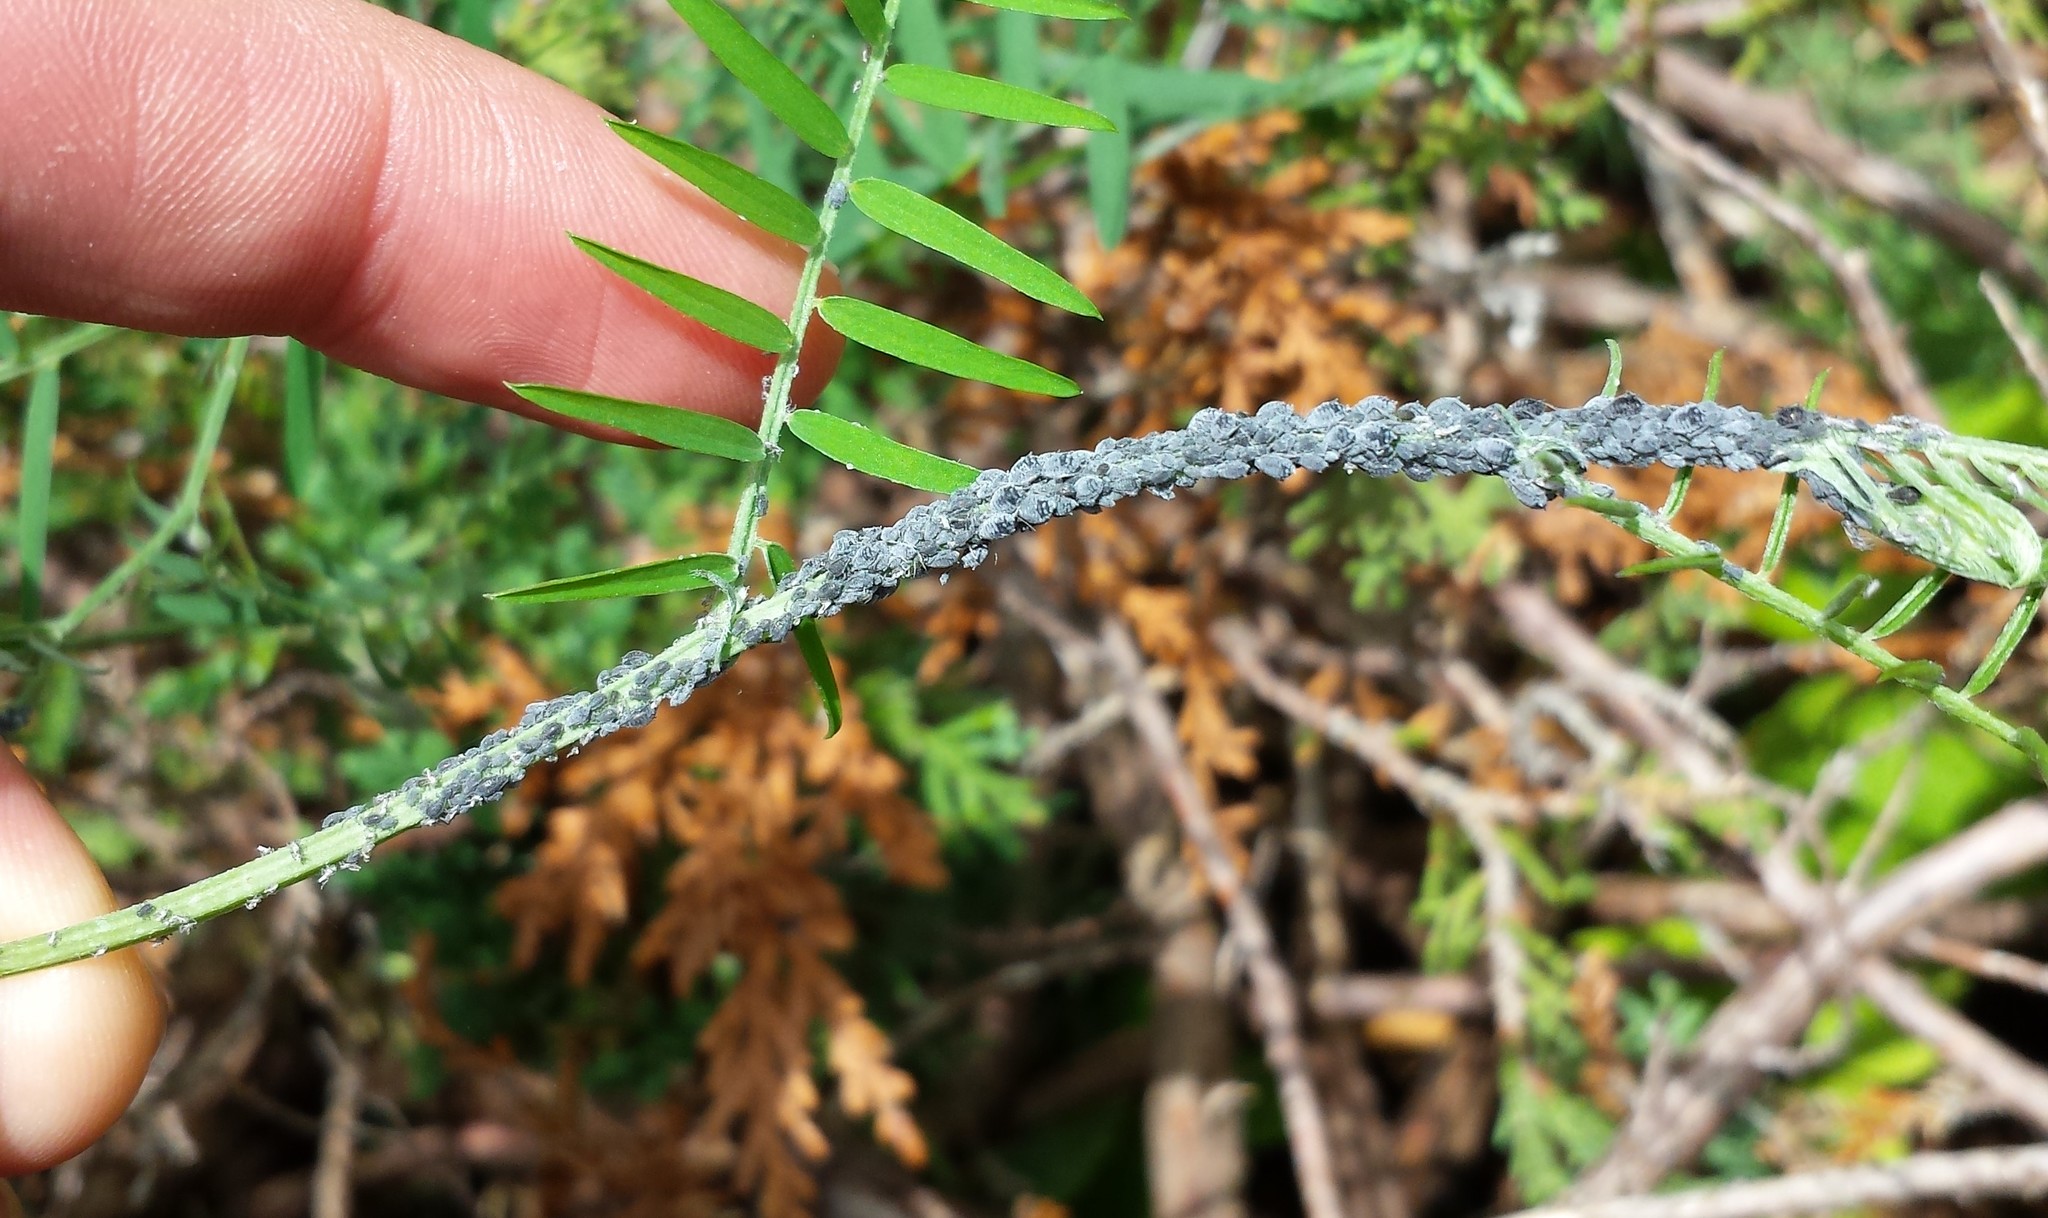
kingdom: Animalia
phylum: Arthropoda
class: Insecta
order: Hemiptera
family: Aphididae
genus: Aphis
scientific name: Aphis craccae
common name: Aphid
